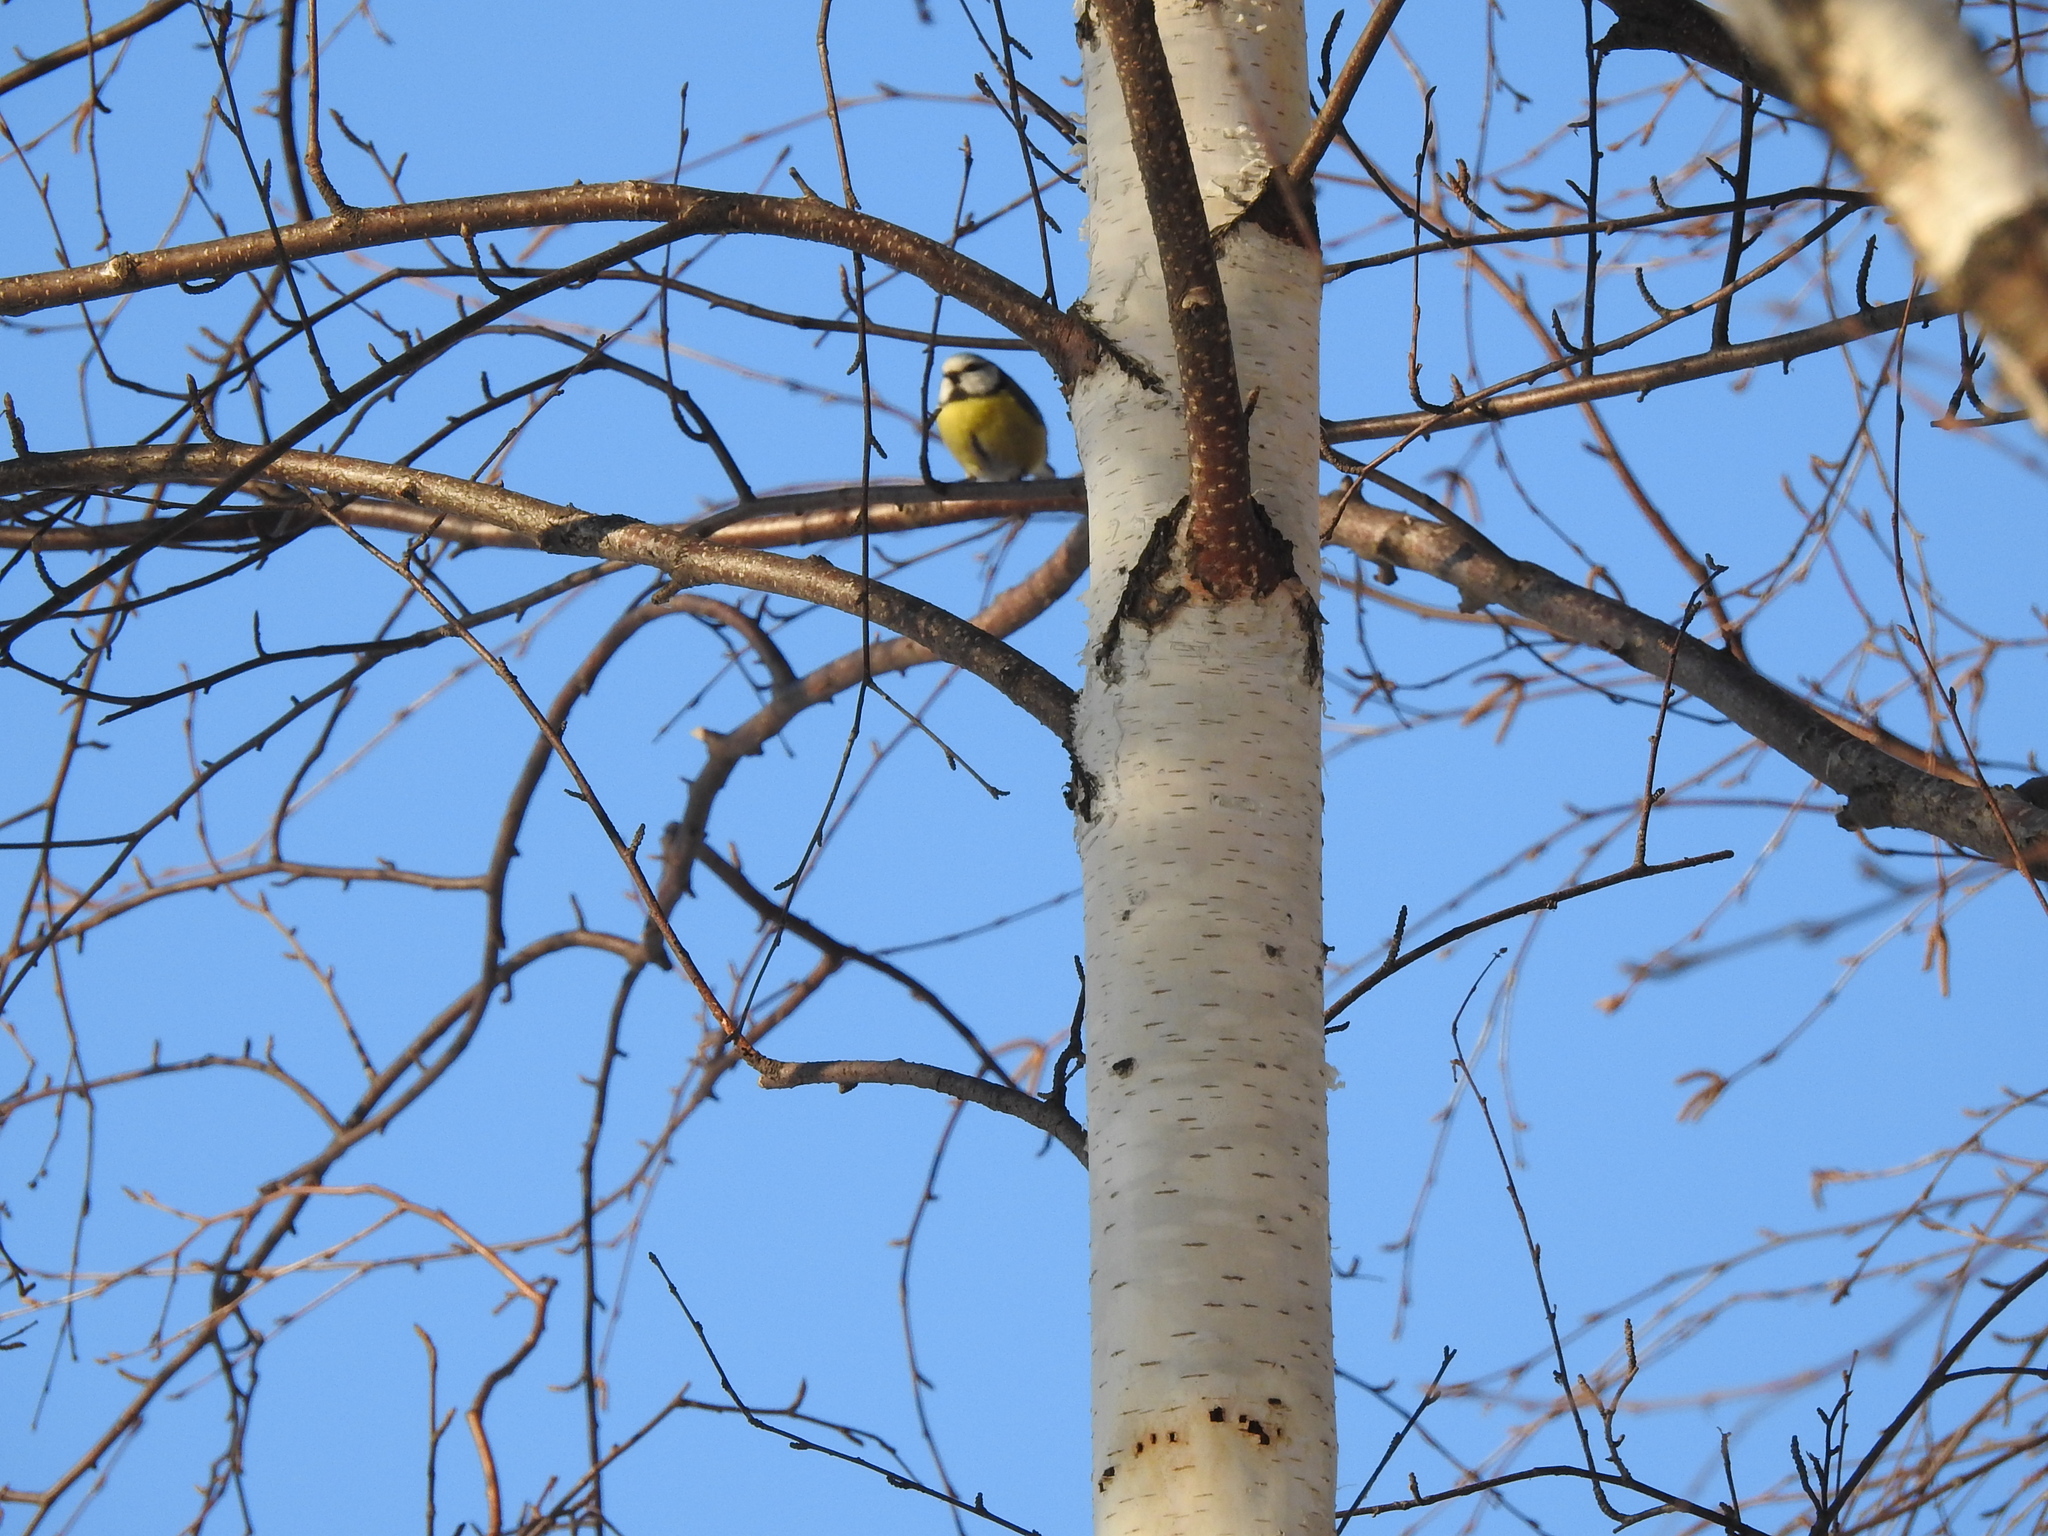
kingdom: Animalia
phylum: Chordata
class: Aves
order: Passeriformes
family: Paridae
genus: Cyanistes
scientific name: Cyanistes caeruleus
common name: Eurasian blue tit
